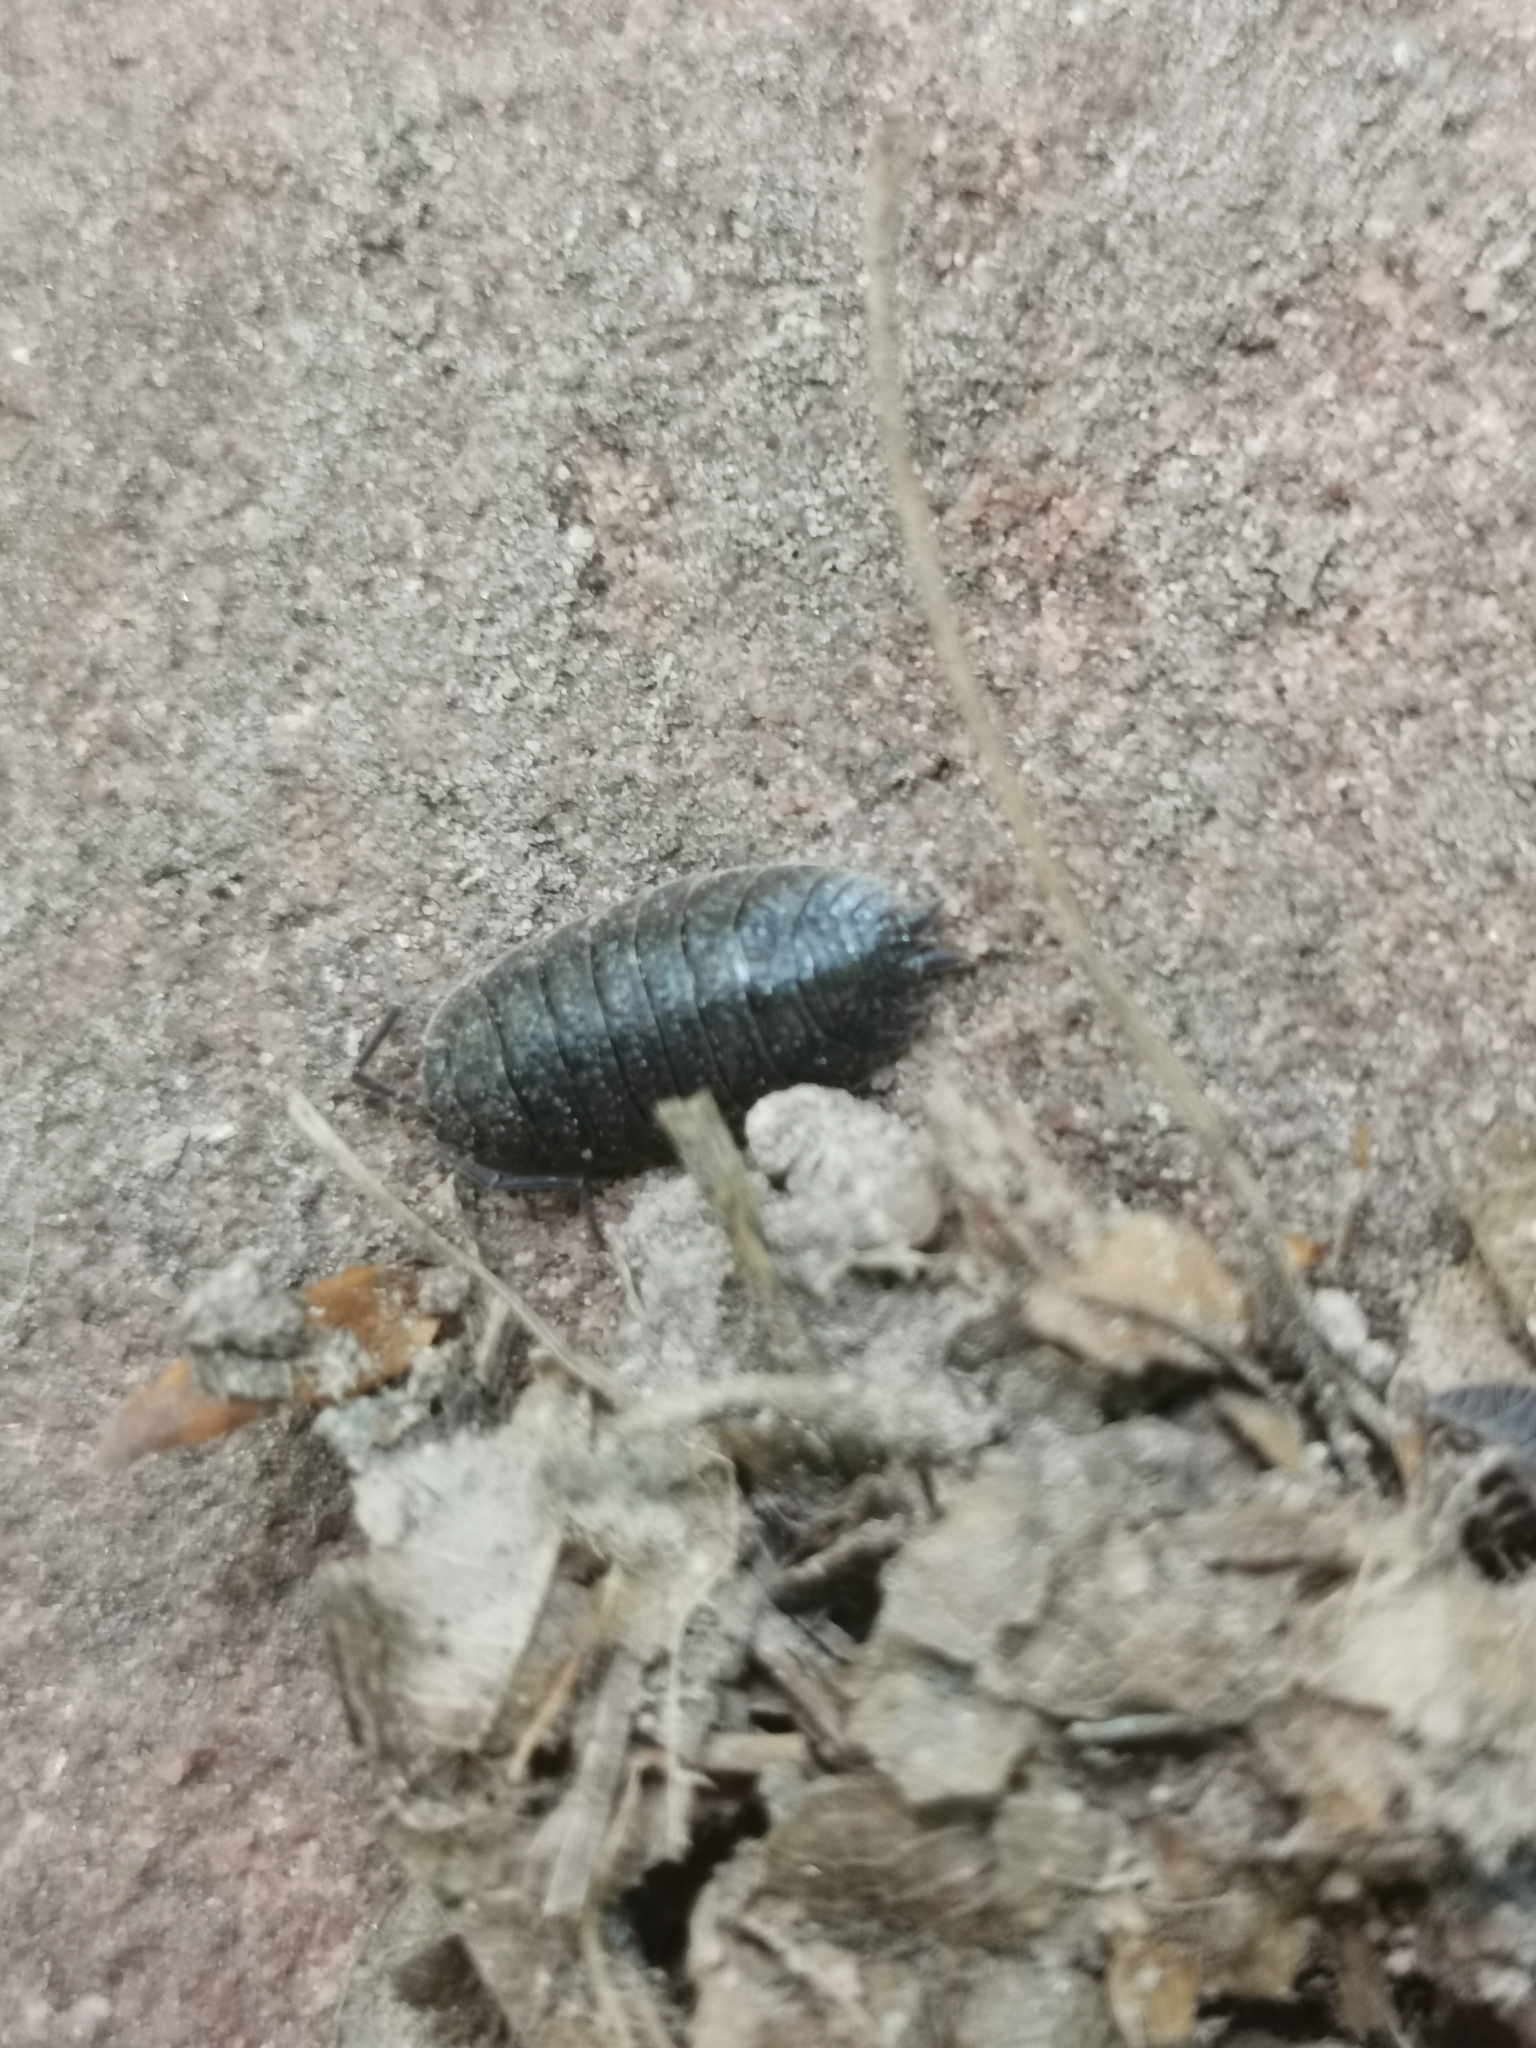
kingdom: Animalia
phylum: Arthropoda
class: Malacostraca
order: Isopoda
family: Porcellionidae
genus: Porcellio
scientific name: Porcellio scaber
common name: Common rough woodlouse
